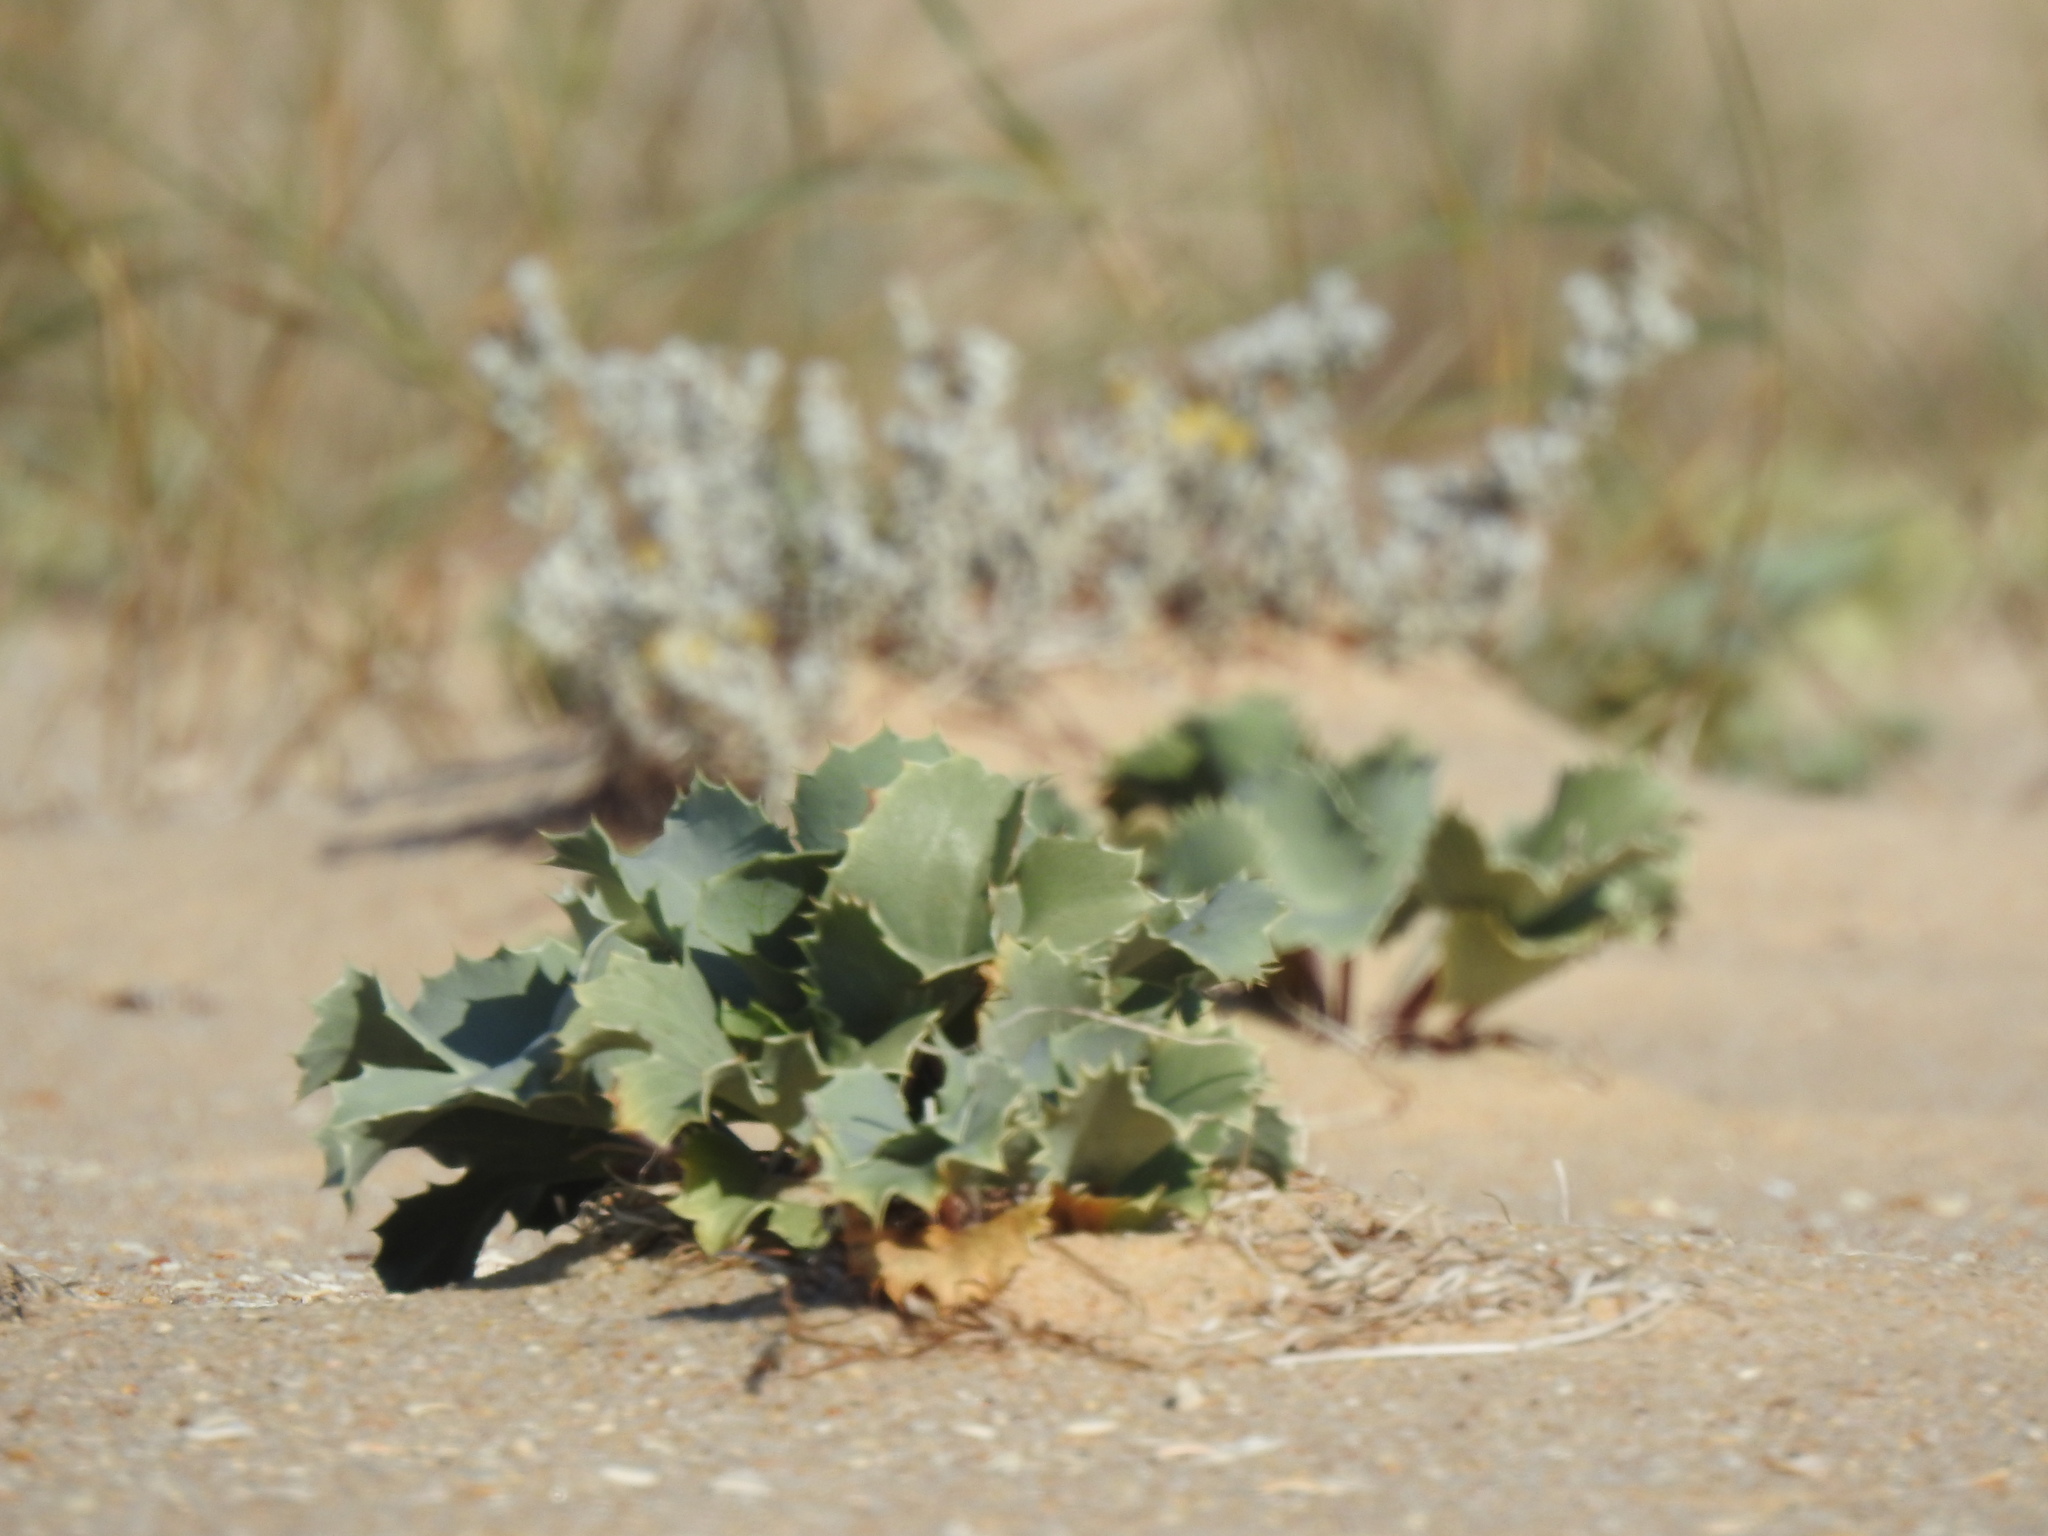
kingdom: Plantae
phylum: Tracheophyta
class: Magnoliopsida
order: Apiales
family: Apiaceae
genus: Eryngium
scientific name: Eryngium maritimum
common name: Sea-holly
